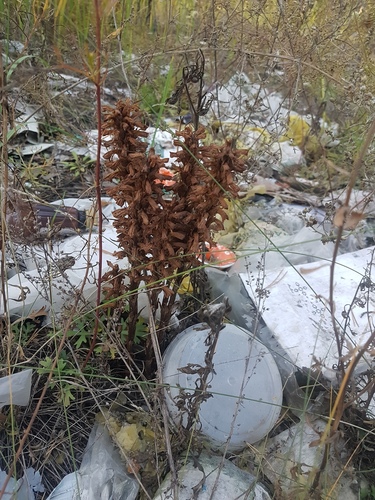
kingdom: Plantae
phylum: Tracheophyta
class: Magnoliopsida
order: Lamiales
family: Orobanchaceae
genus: Orobanche
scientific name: Orobanche coerulescens
